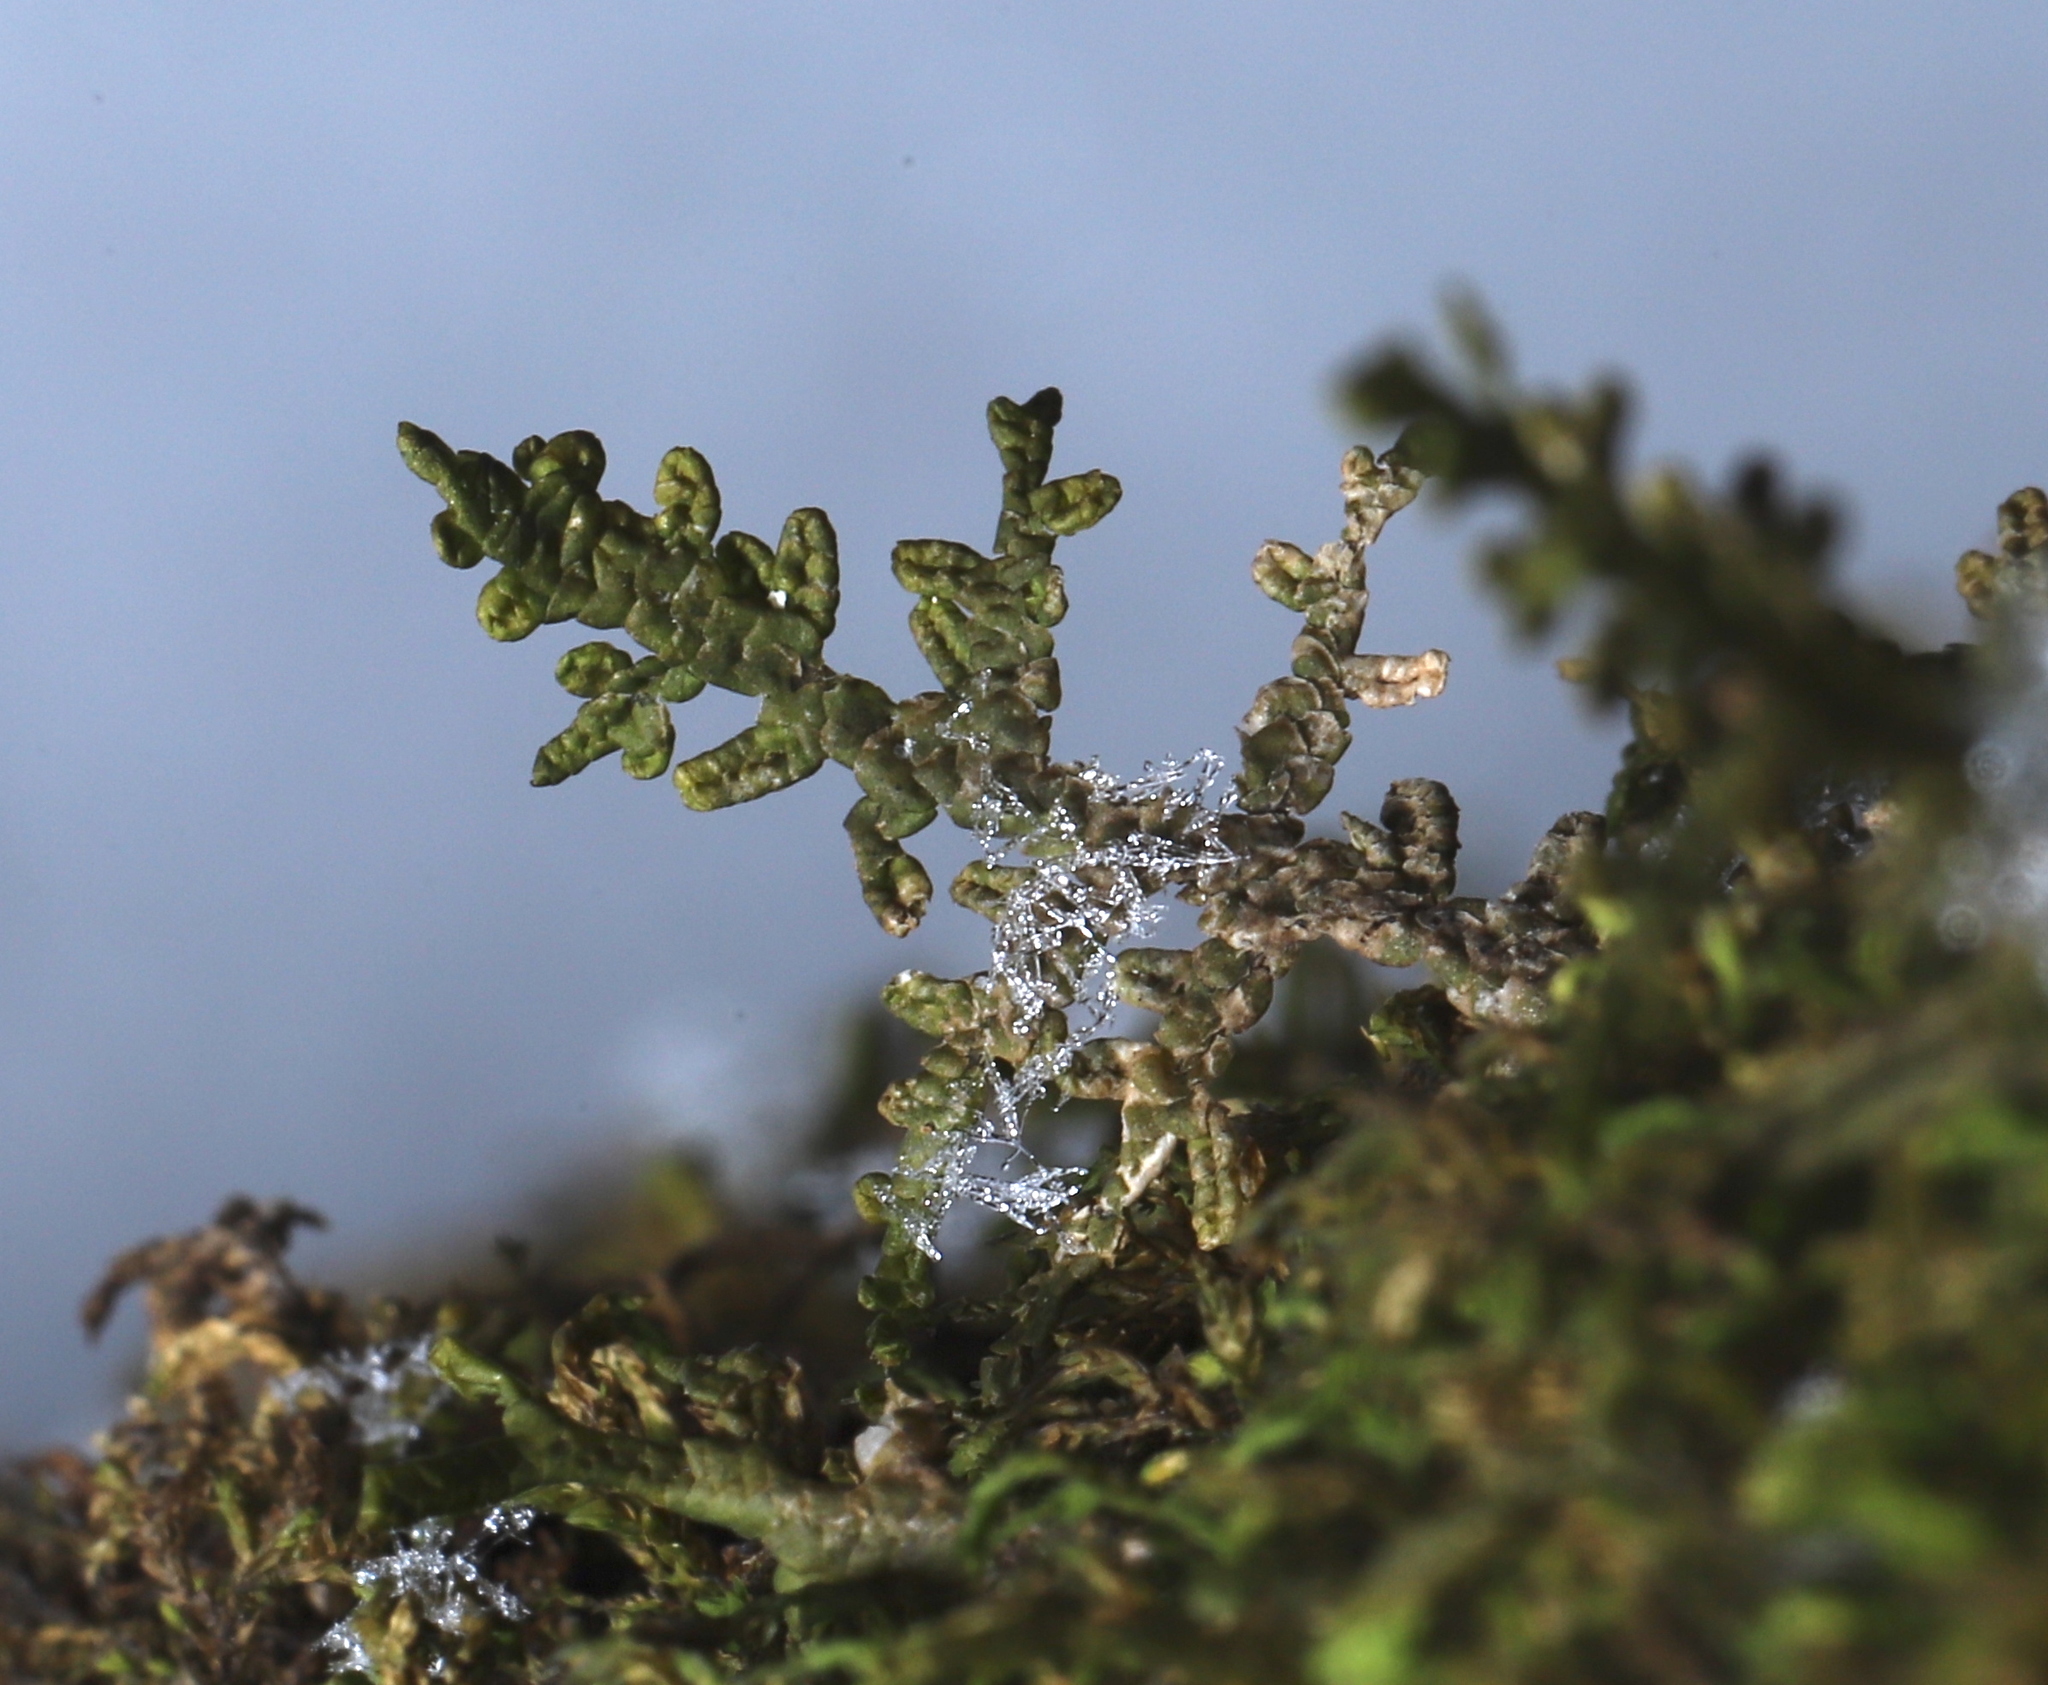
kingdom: Plantae
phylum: Marchantiophyta
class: Jungermanniopsida
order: Porellales
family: Porellaceae
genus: Porella
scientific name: Porella platyphylla
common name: Wall scalewort
